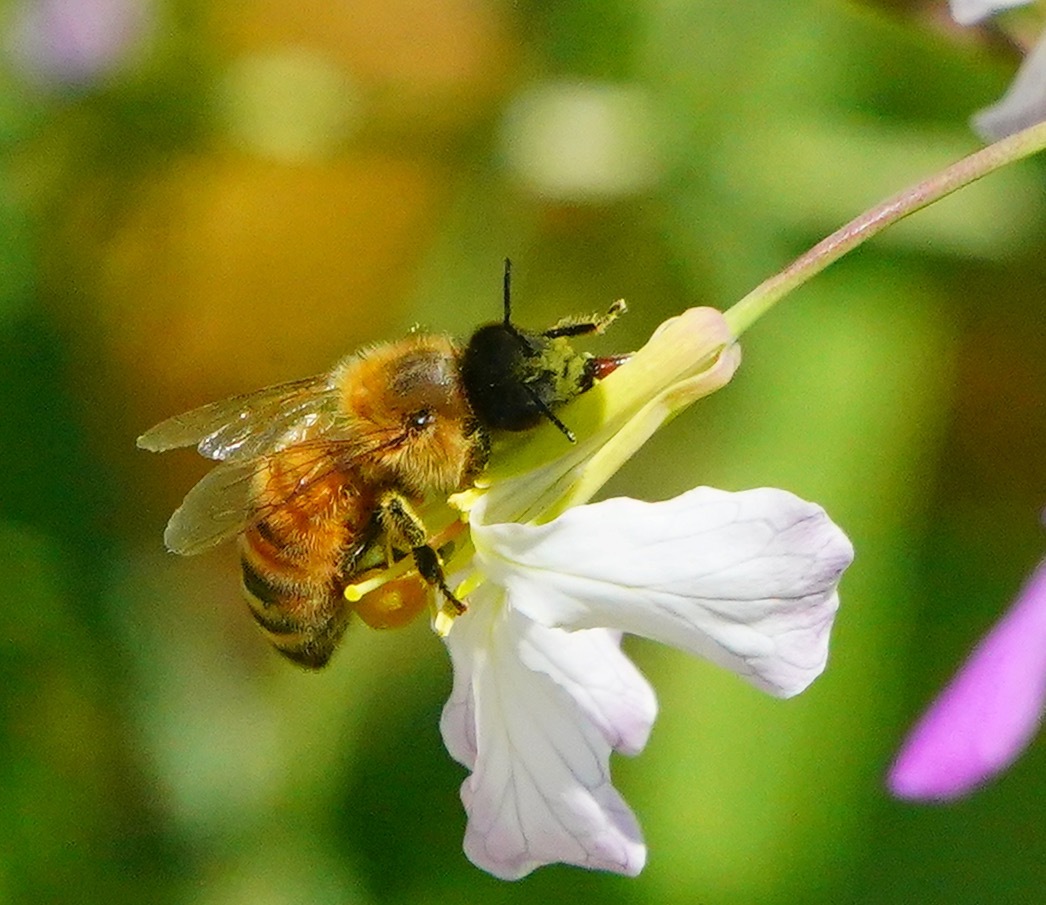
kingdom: Animalia
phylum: Arthropoda
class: Insecta
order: Hymenoptera
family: Apidae
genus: Apis
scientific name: Apis mellifera
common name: Honey bee
